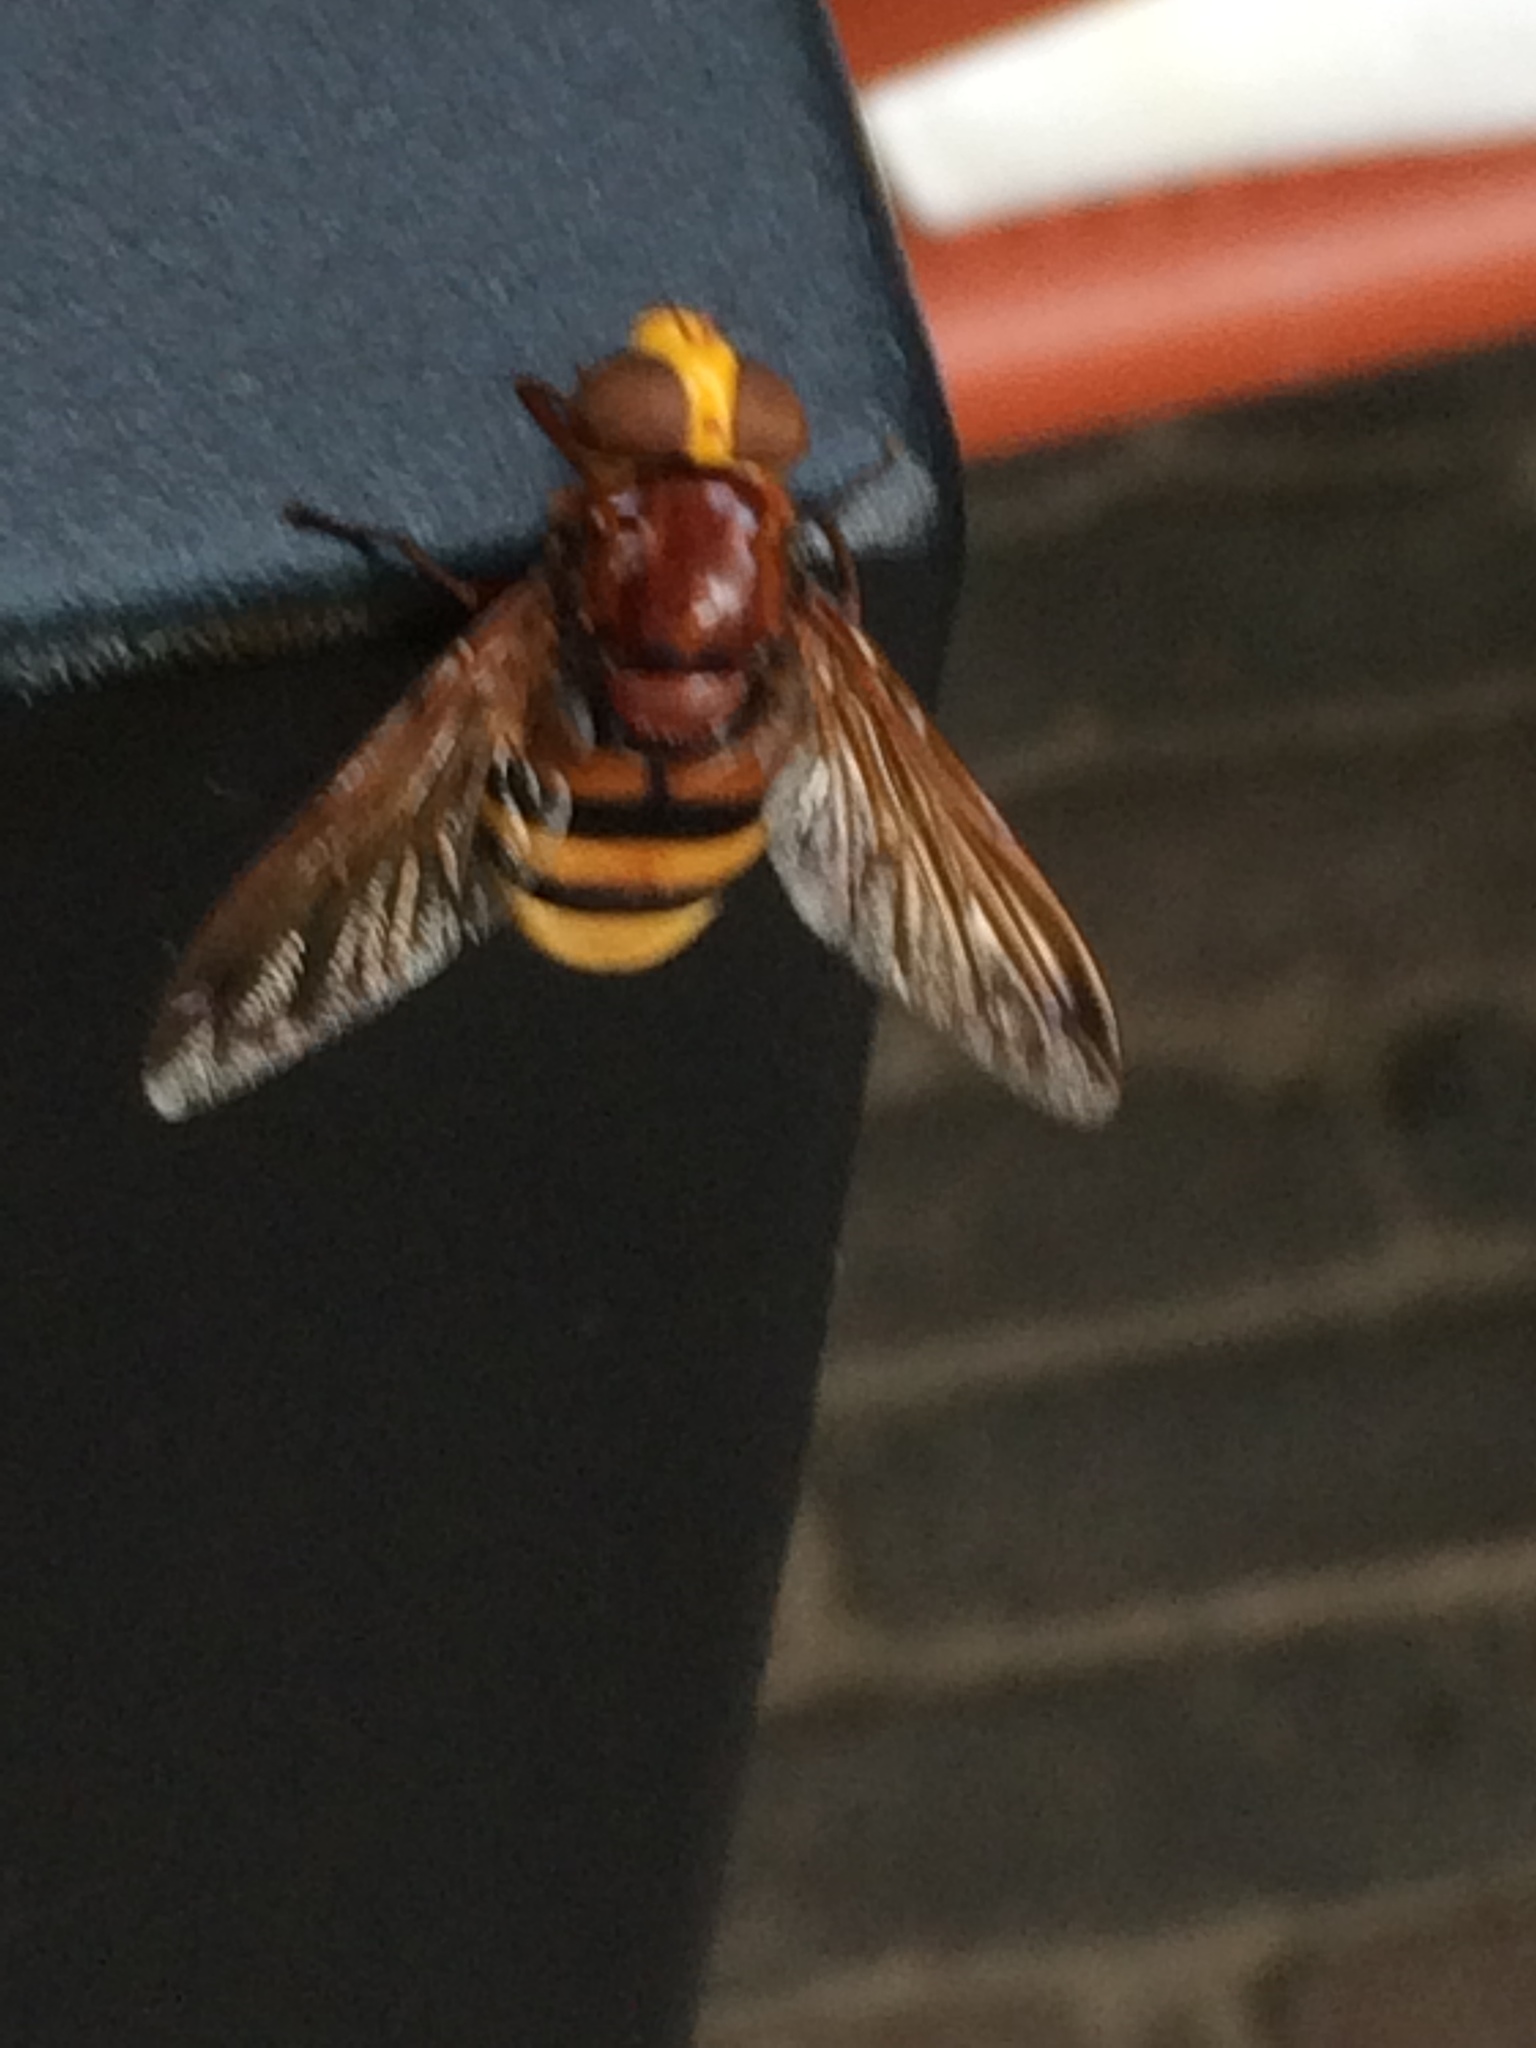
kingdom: Animalia
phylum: Arthropoda
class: Insecta
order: Diptera
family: Syrphidae
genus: Volucella
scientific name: Volucella zonaria
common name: Hornet hoverfly
